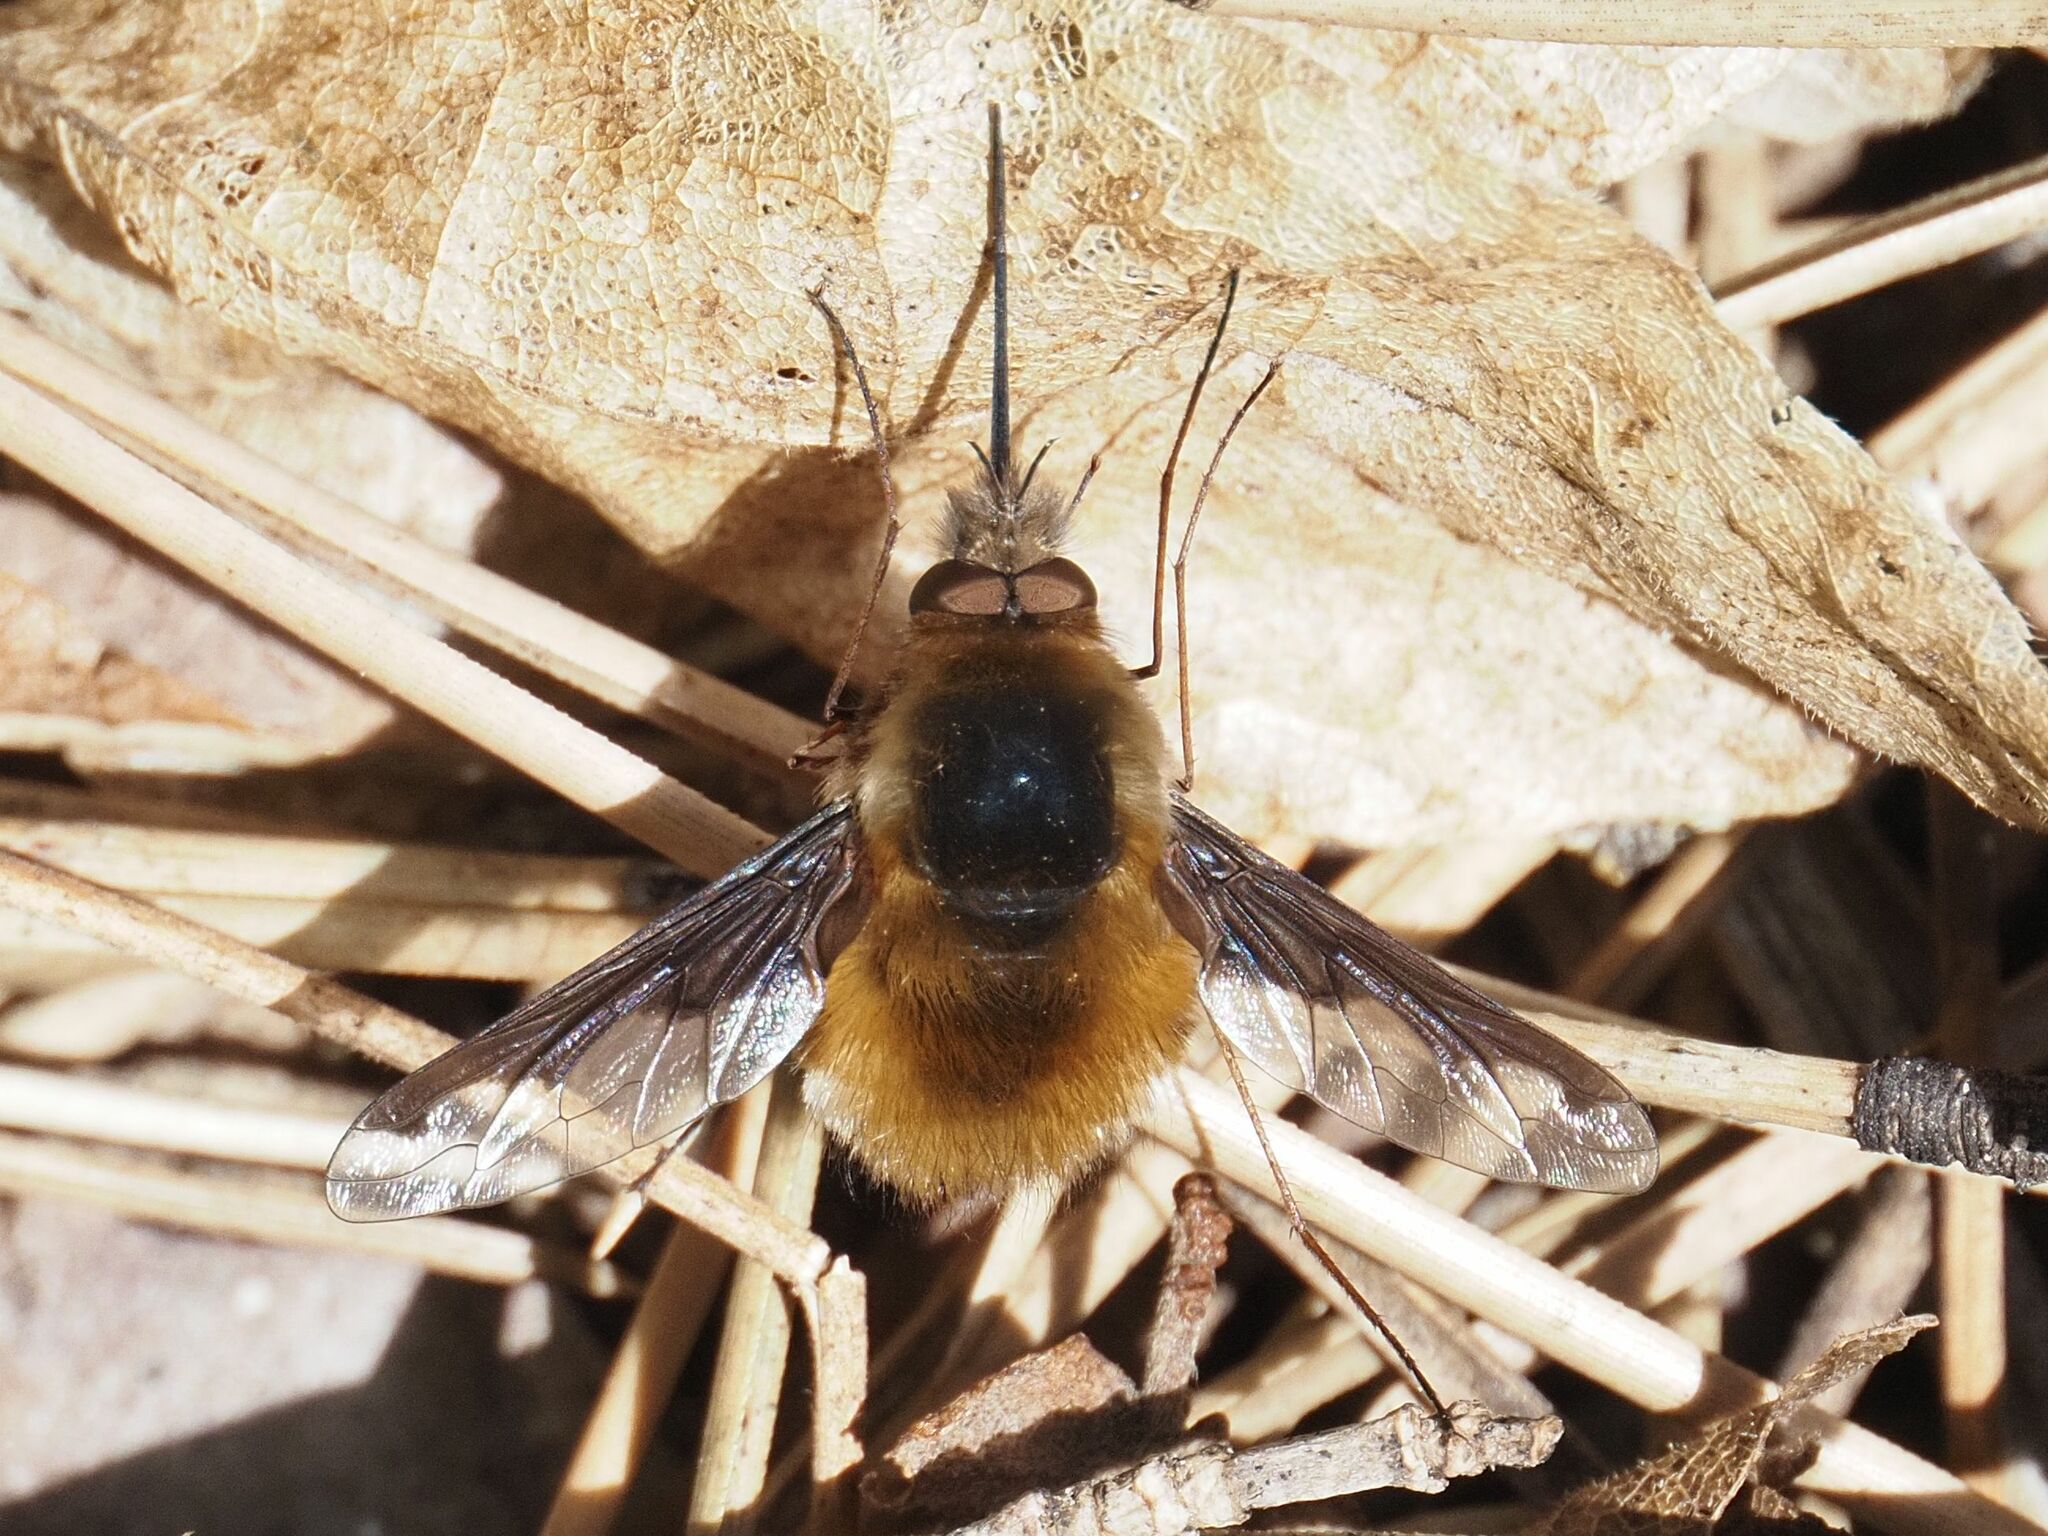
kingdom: Animalia
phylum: Arthropoda
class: Insecta
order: Diptera
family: Bombyliidae
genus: Bombylius
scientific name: Bombylius major
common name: Bee fly
